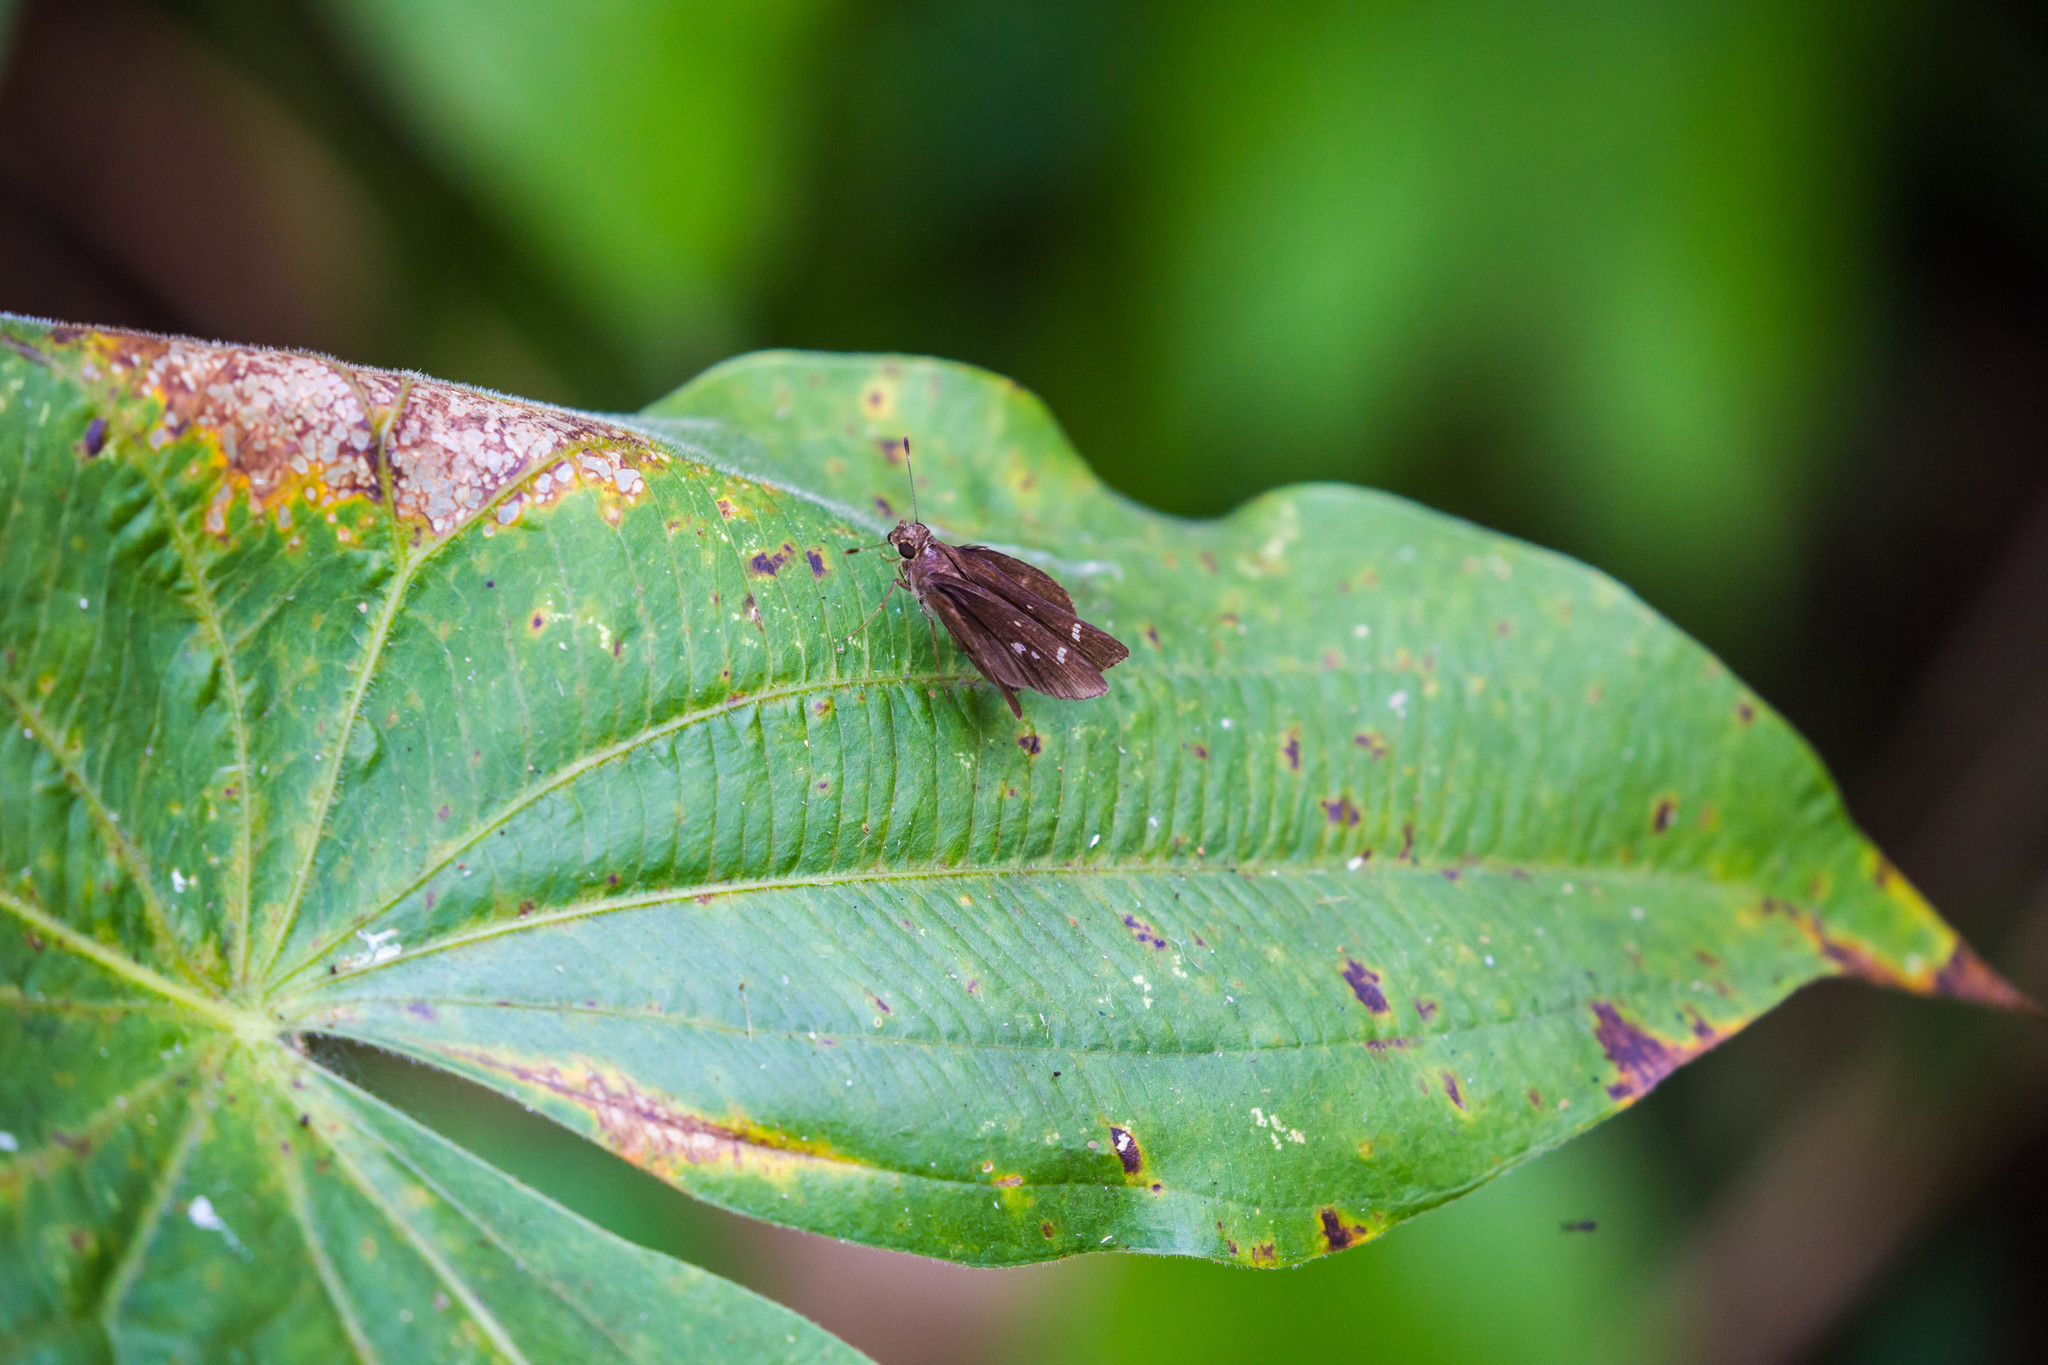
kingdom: Animalia
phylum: Arthropoda
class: Insecta
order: Lepidoptera
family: Hesperiidae
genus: Lerema
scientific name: Lerema accius
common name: Clouded skipper
